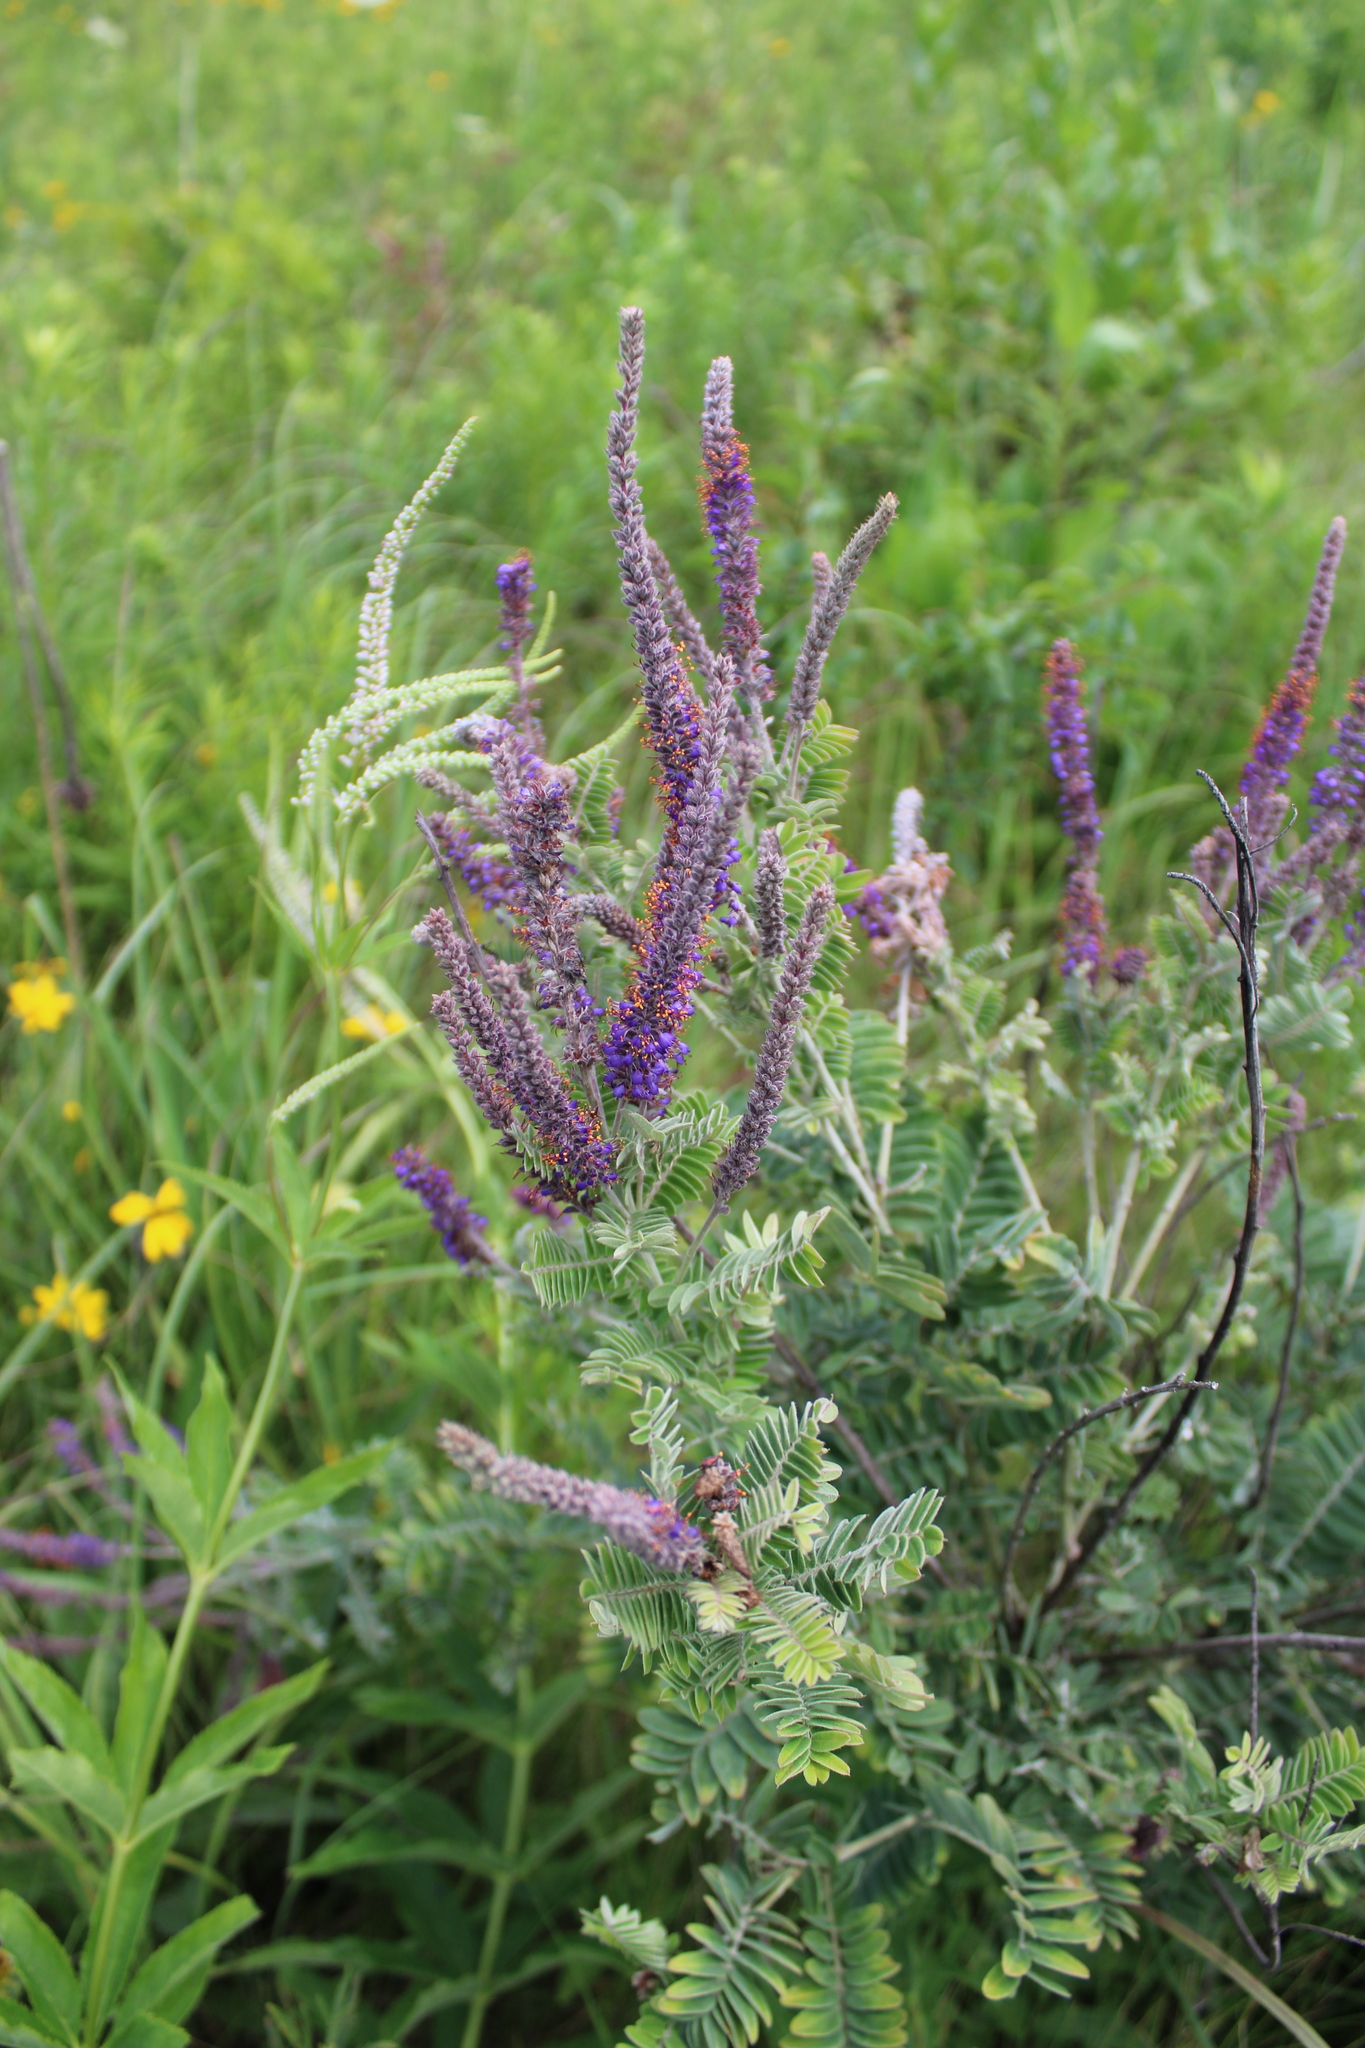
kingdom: Plantae
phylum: Tracheophyta
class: Magnoliopsida
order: Fabales
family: Fabaceae
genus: Amorpha
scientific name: Amorpha canescens
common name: Leadplant
